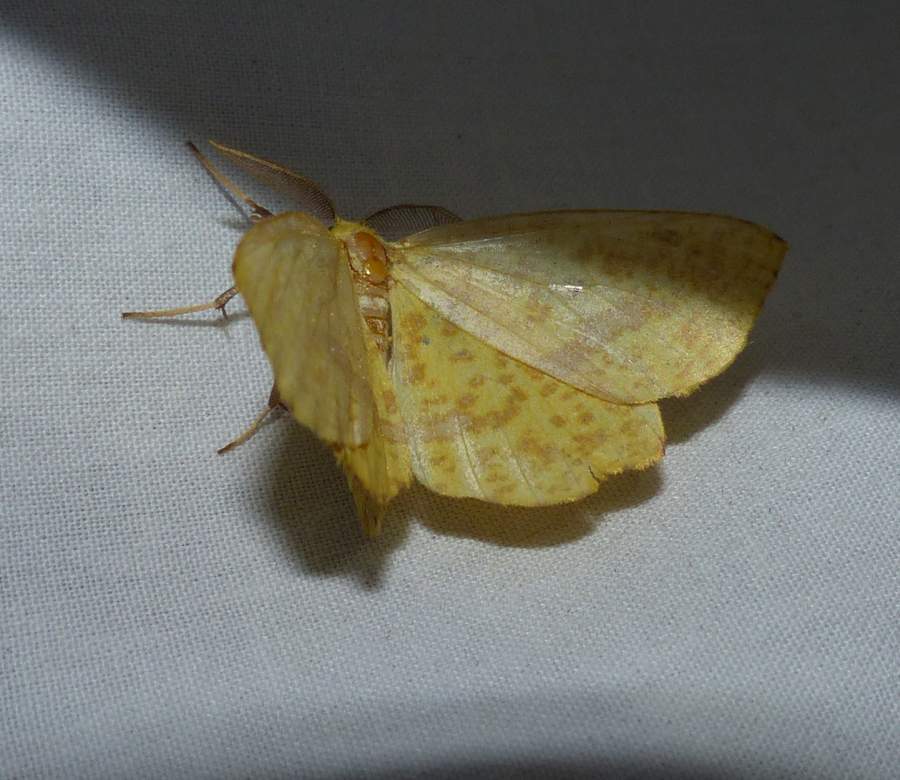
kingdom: Animalia
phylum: Arthropoda
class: Insecta
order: Lepidoptera
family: Geometridae
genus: Xanthotype
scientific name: Xanthotype
